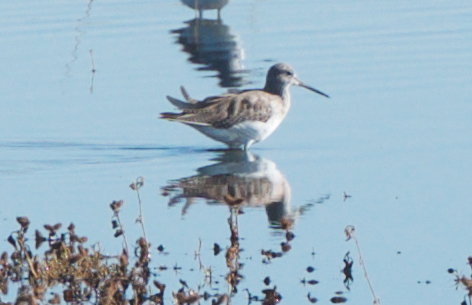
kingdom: Animalia
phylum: Chordata
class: Aves
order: Charadriiformes
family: Scolopacidae
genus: Tringa
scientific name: Tringa melanoleuca
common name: Greater yellowlegs
